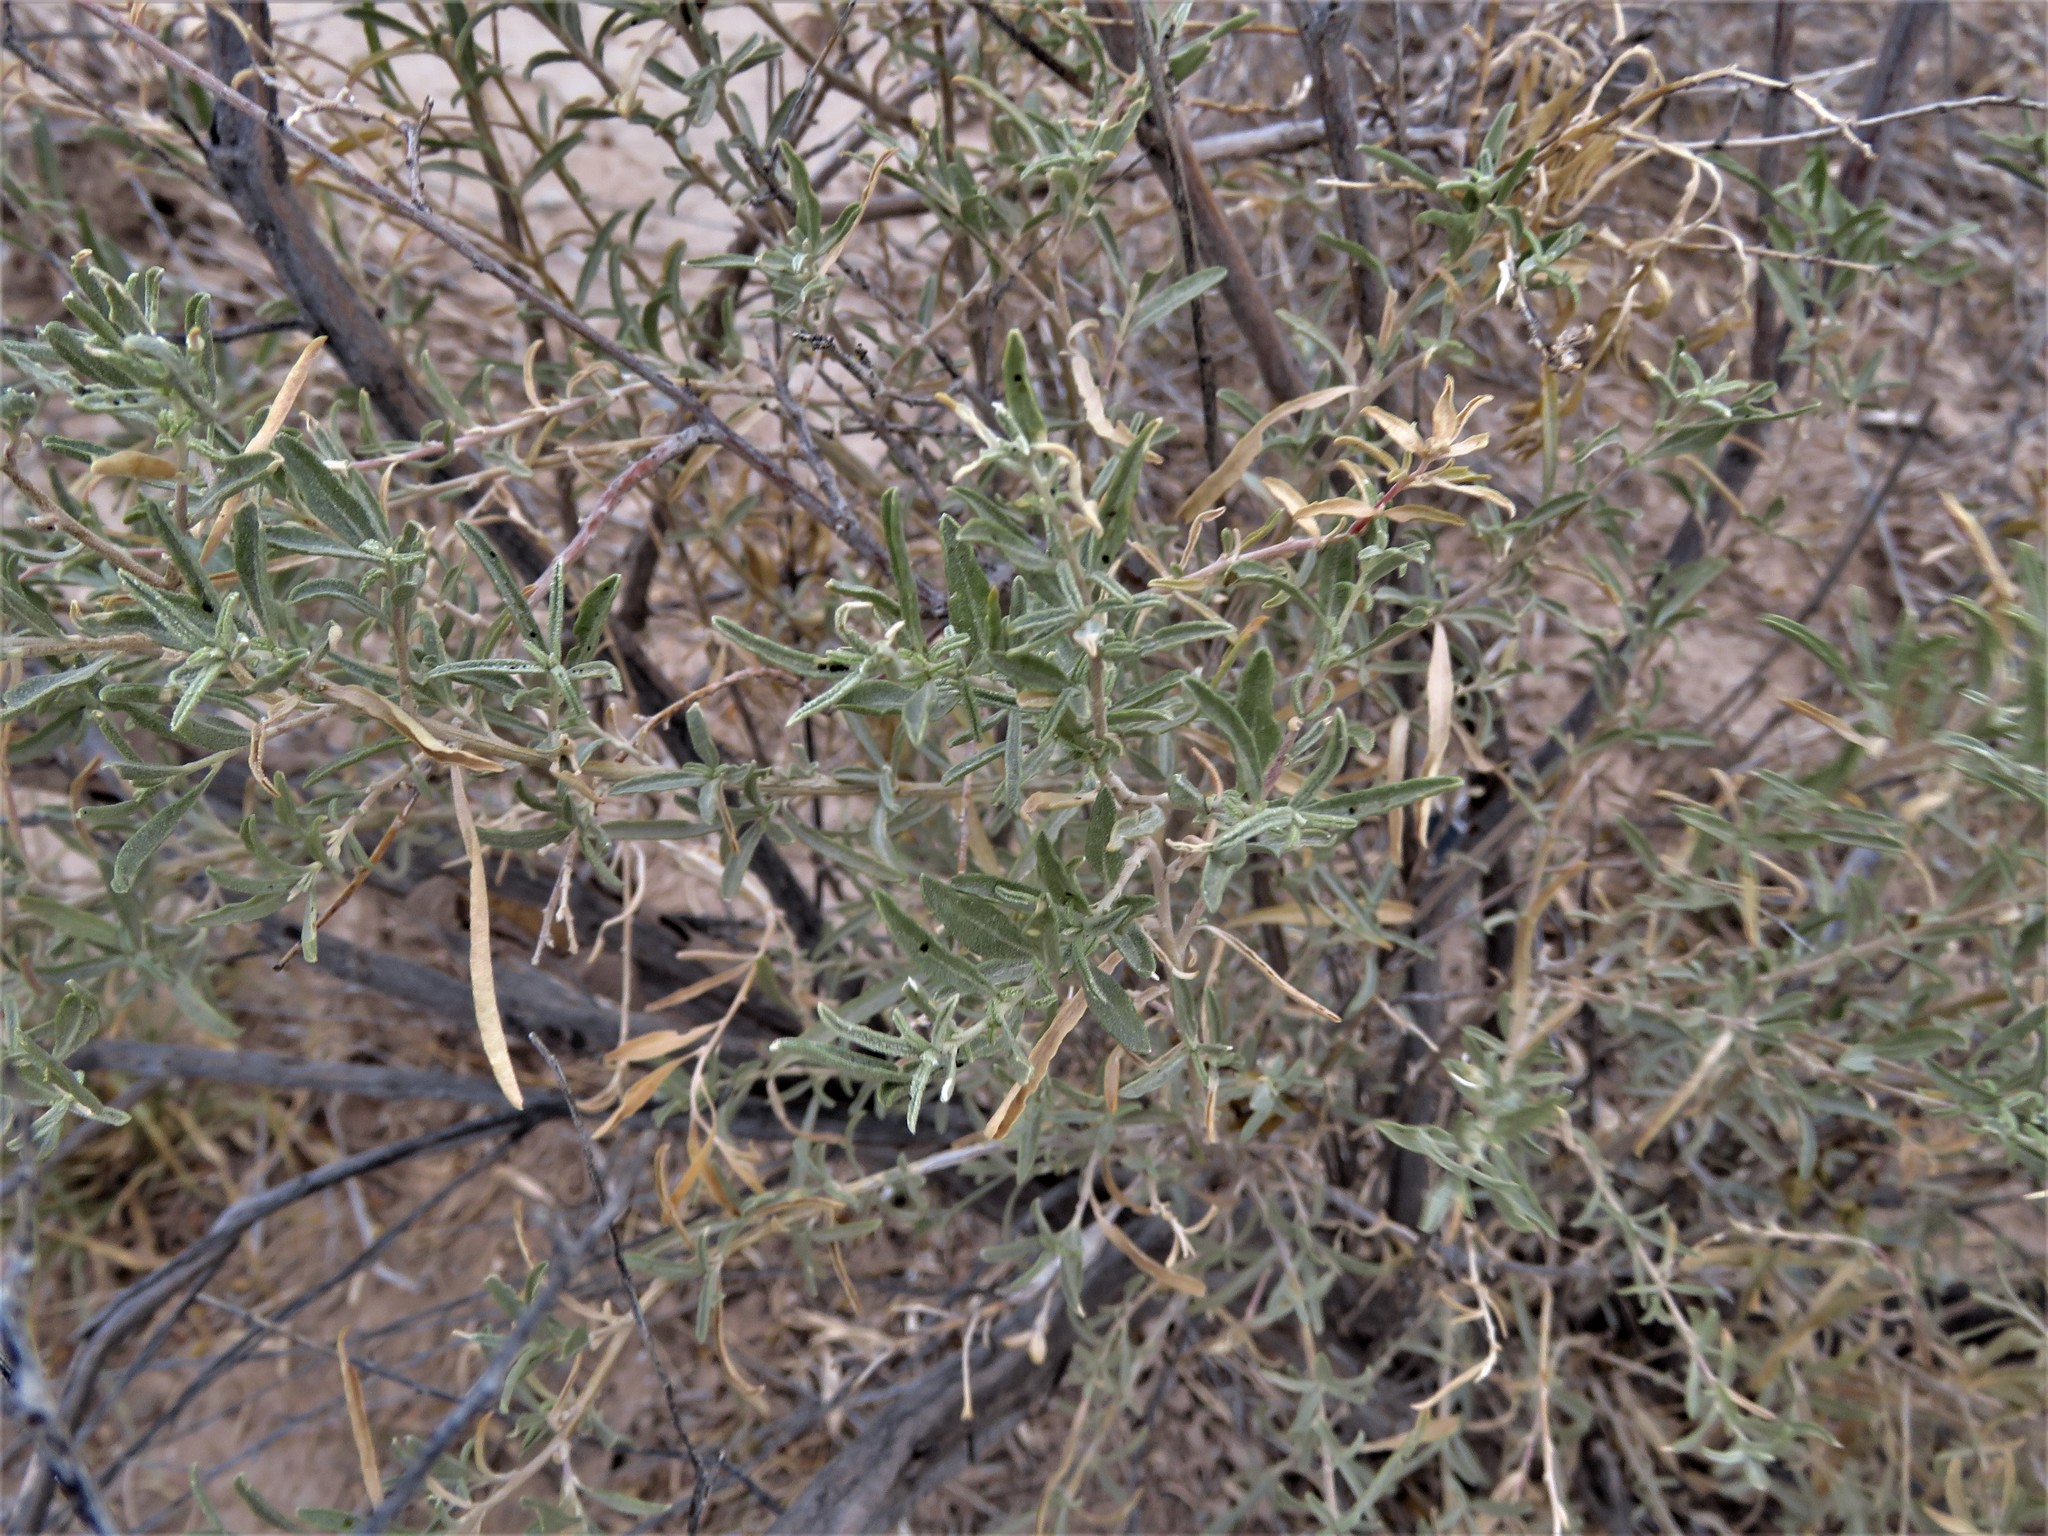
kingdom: Plantae
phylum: Tracheophyta
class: Magnoliopsida
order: Caryophyllales
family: Amaranthaceae
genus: Atriplex
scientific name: Atriplex canescens
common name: Four-wing saltbush
